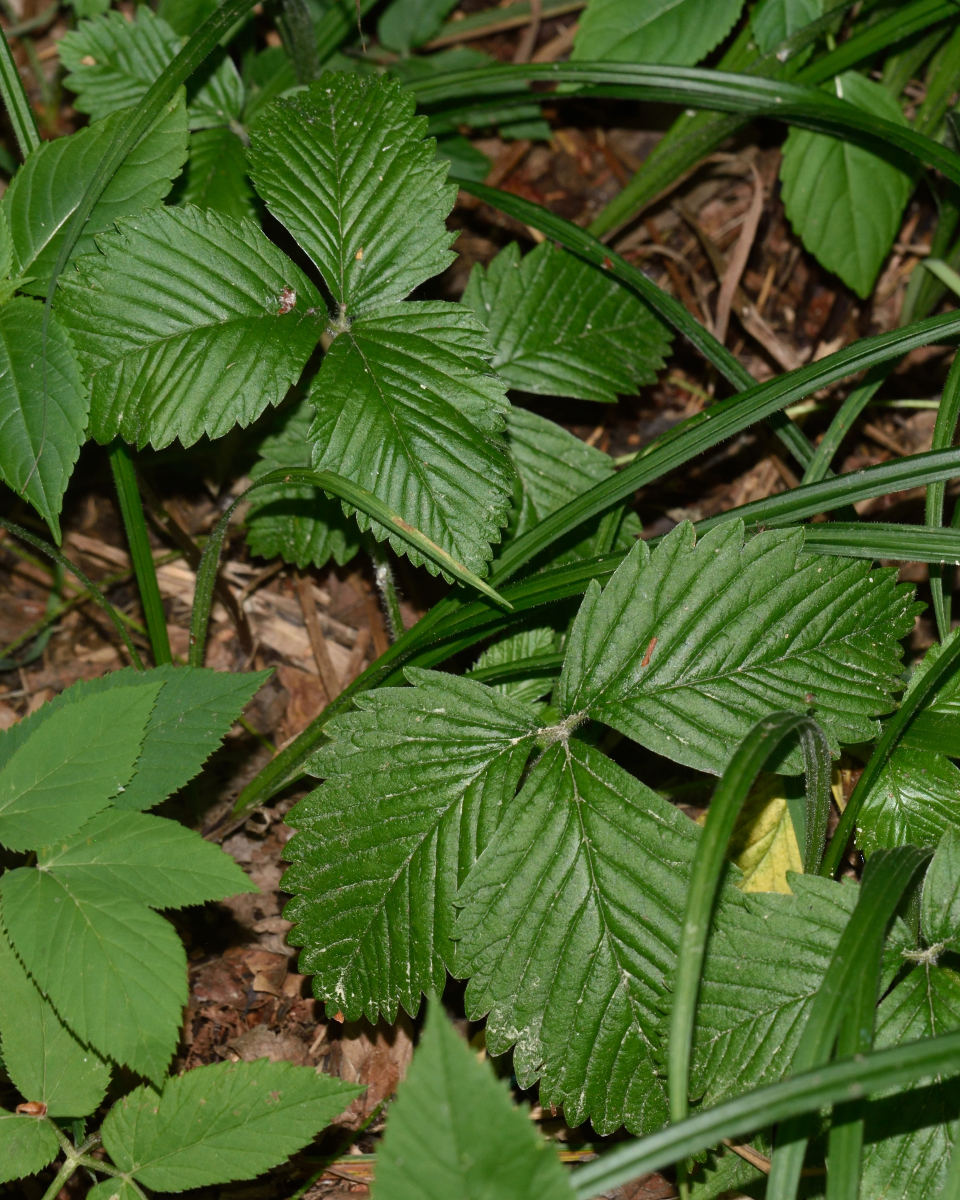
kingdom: Plantae
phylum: Tracheophyta
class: Magnoliopsida
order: Rosales
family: Rosaceae
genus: Fragaria
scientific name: Fragaria moschata
